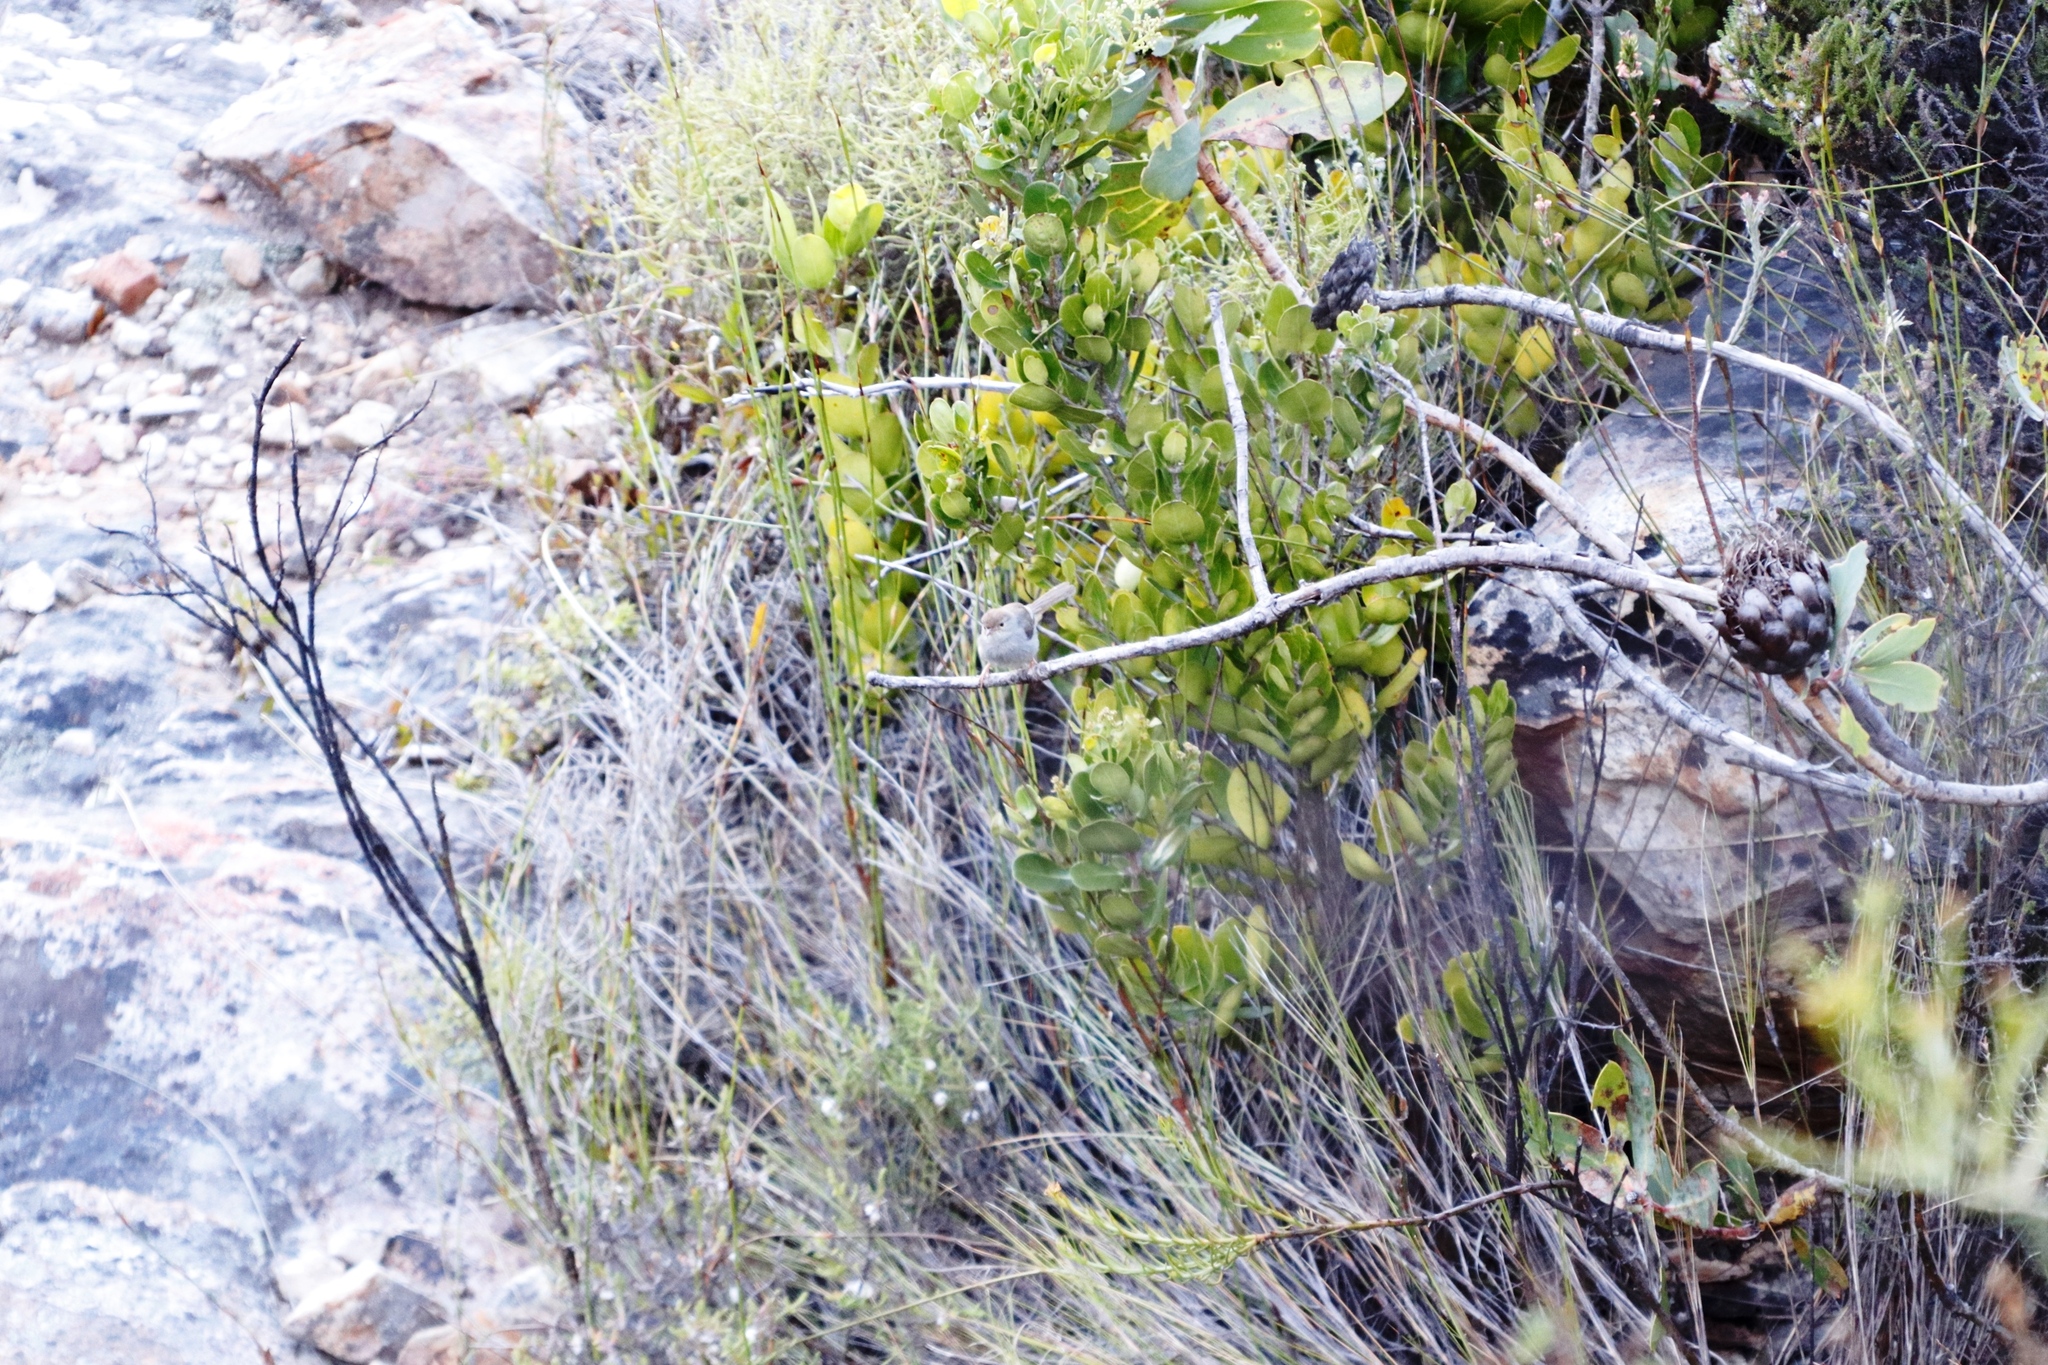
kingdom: Animalia
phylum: Chordata
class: Aves
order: Passeriformes
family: Cisticolidae
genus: Cisticola
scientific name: Cisticola fulvicapilla
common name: Neddicky
